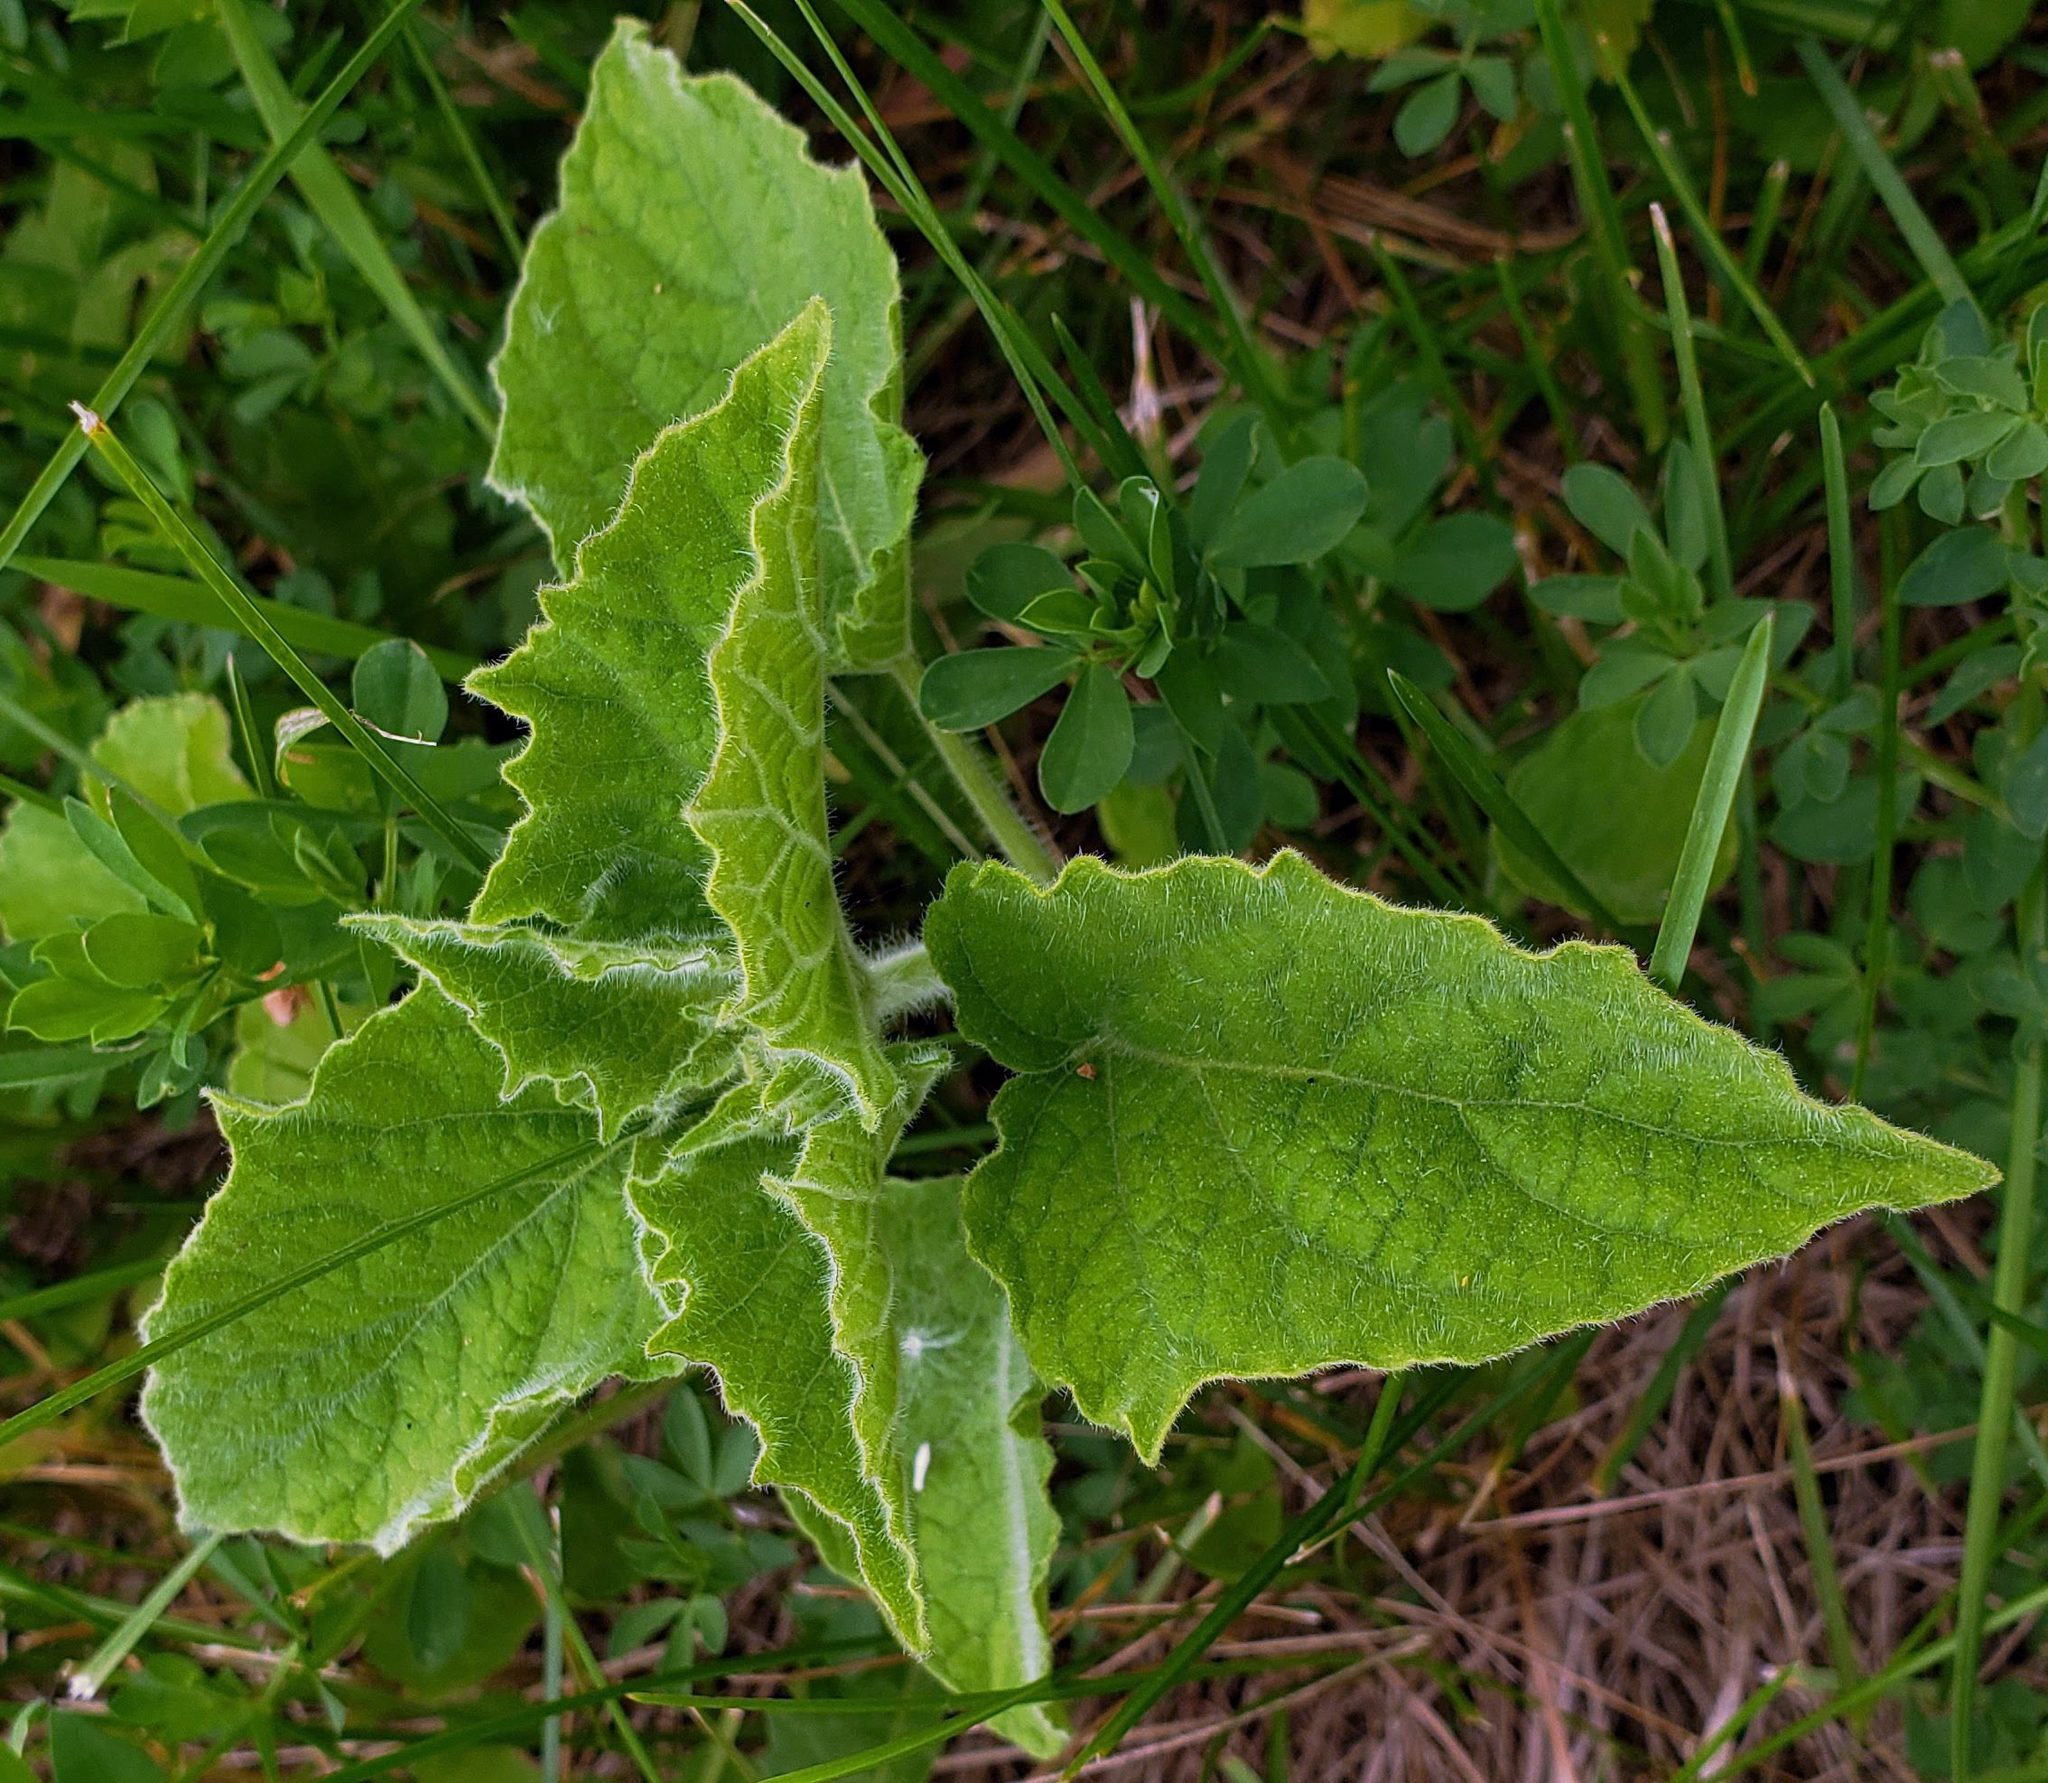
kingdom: Plantae
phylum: Tracheophyta
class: Magnoliopsida
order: Solanales
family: Solanaceae
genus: Physalis
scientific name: Physalis heterophylla
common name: Clammy ground-cherry
